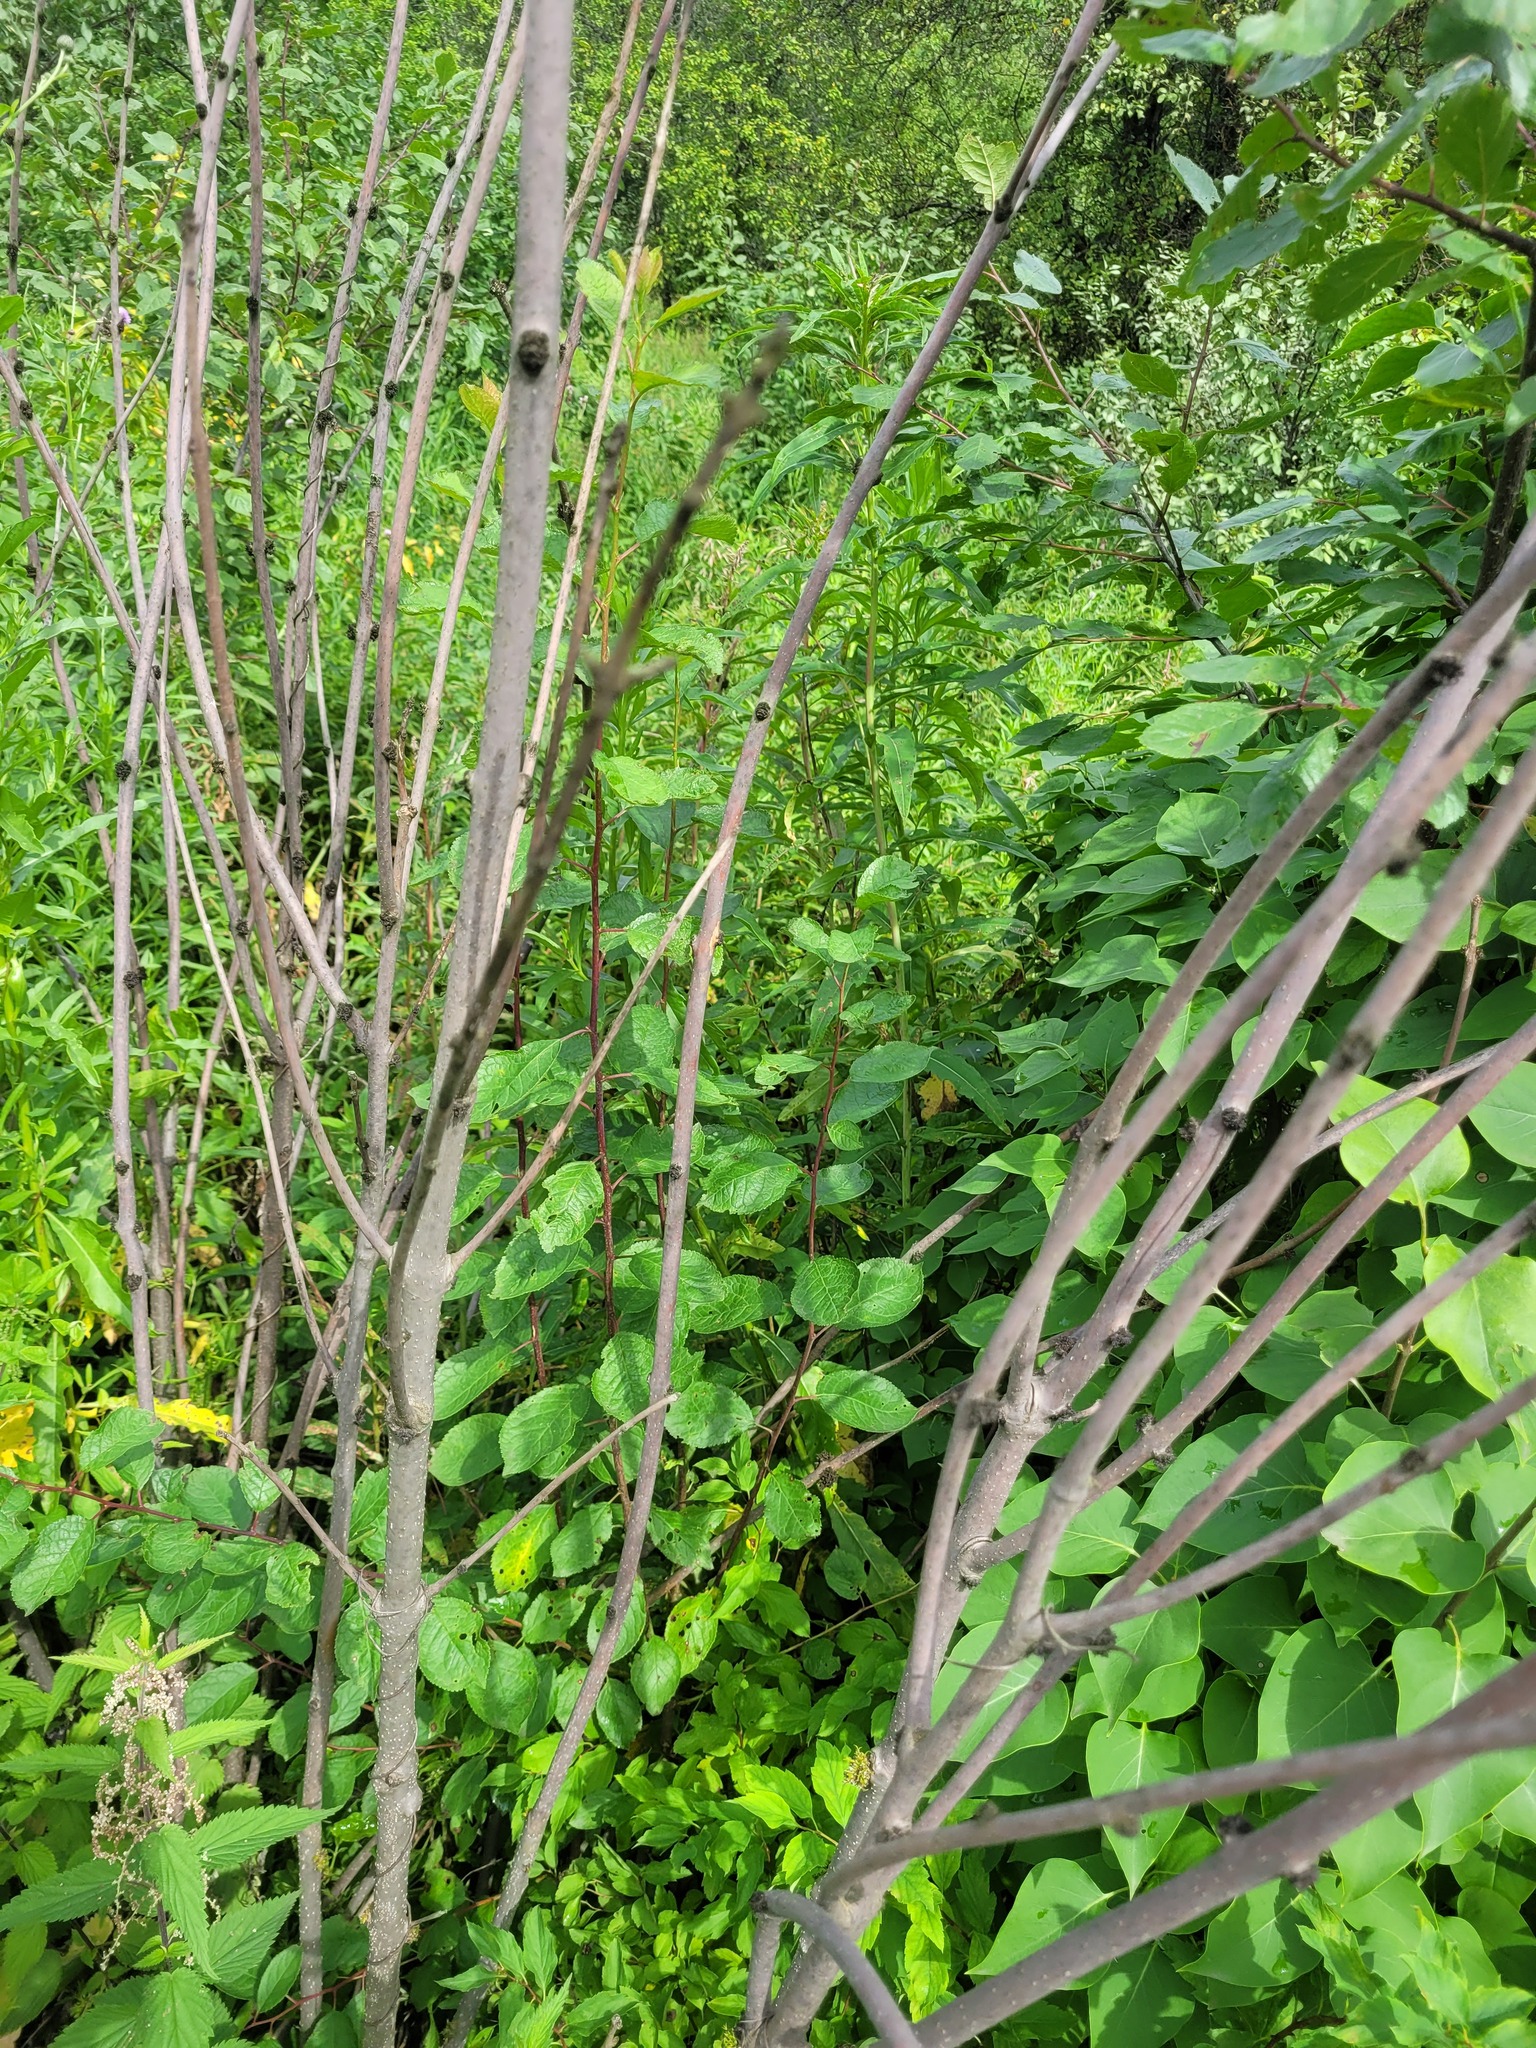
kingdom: Plantae
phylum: Tracheophyta
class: Magnoliopsida
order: Rosales
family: Rosaceae
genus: Prunus
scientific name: Prunus domestica
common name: Wild plum
